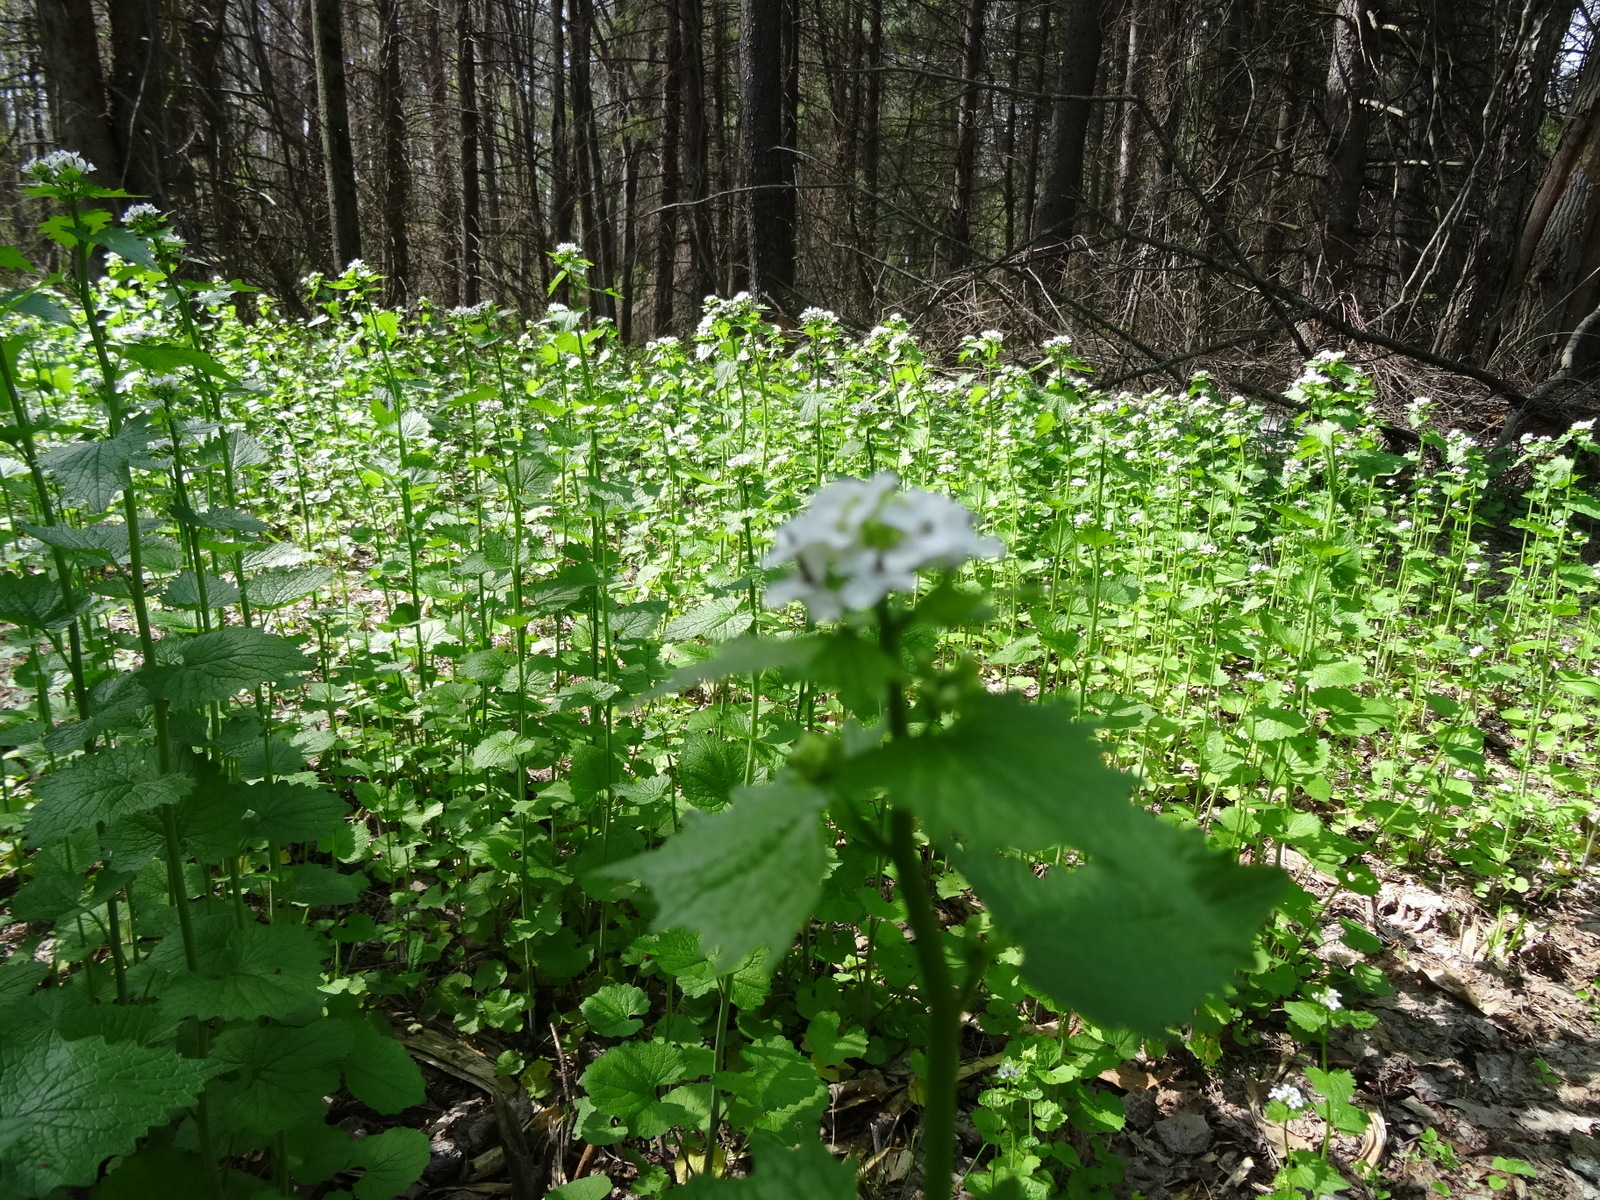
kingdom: Plantae
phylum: Tracheophyta
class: Magnoliopsida
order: Brassicales
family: Brassicaceae
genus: Alliaria
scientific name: Alliaria petiolata
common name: Garlic mustard
